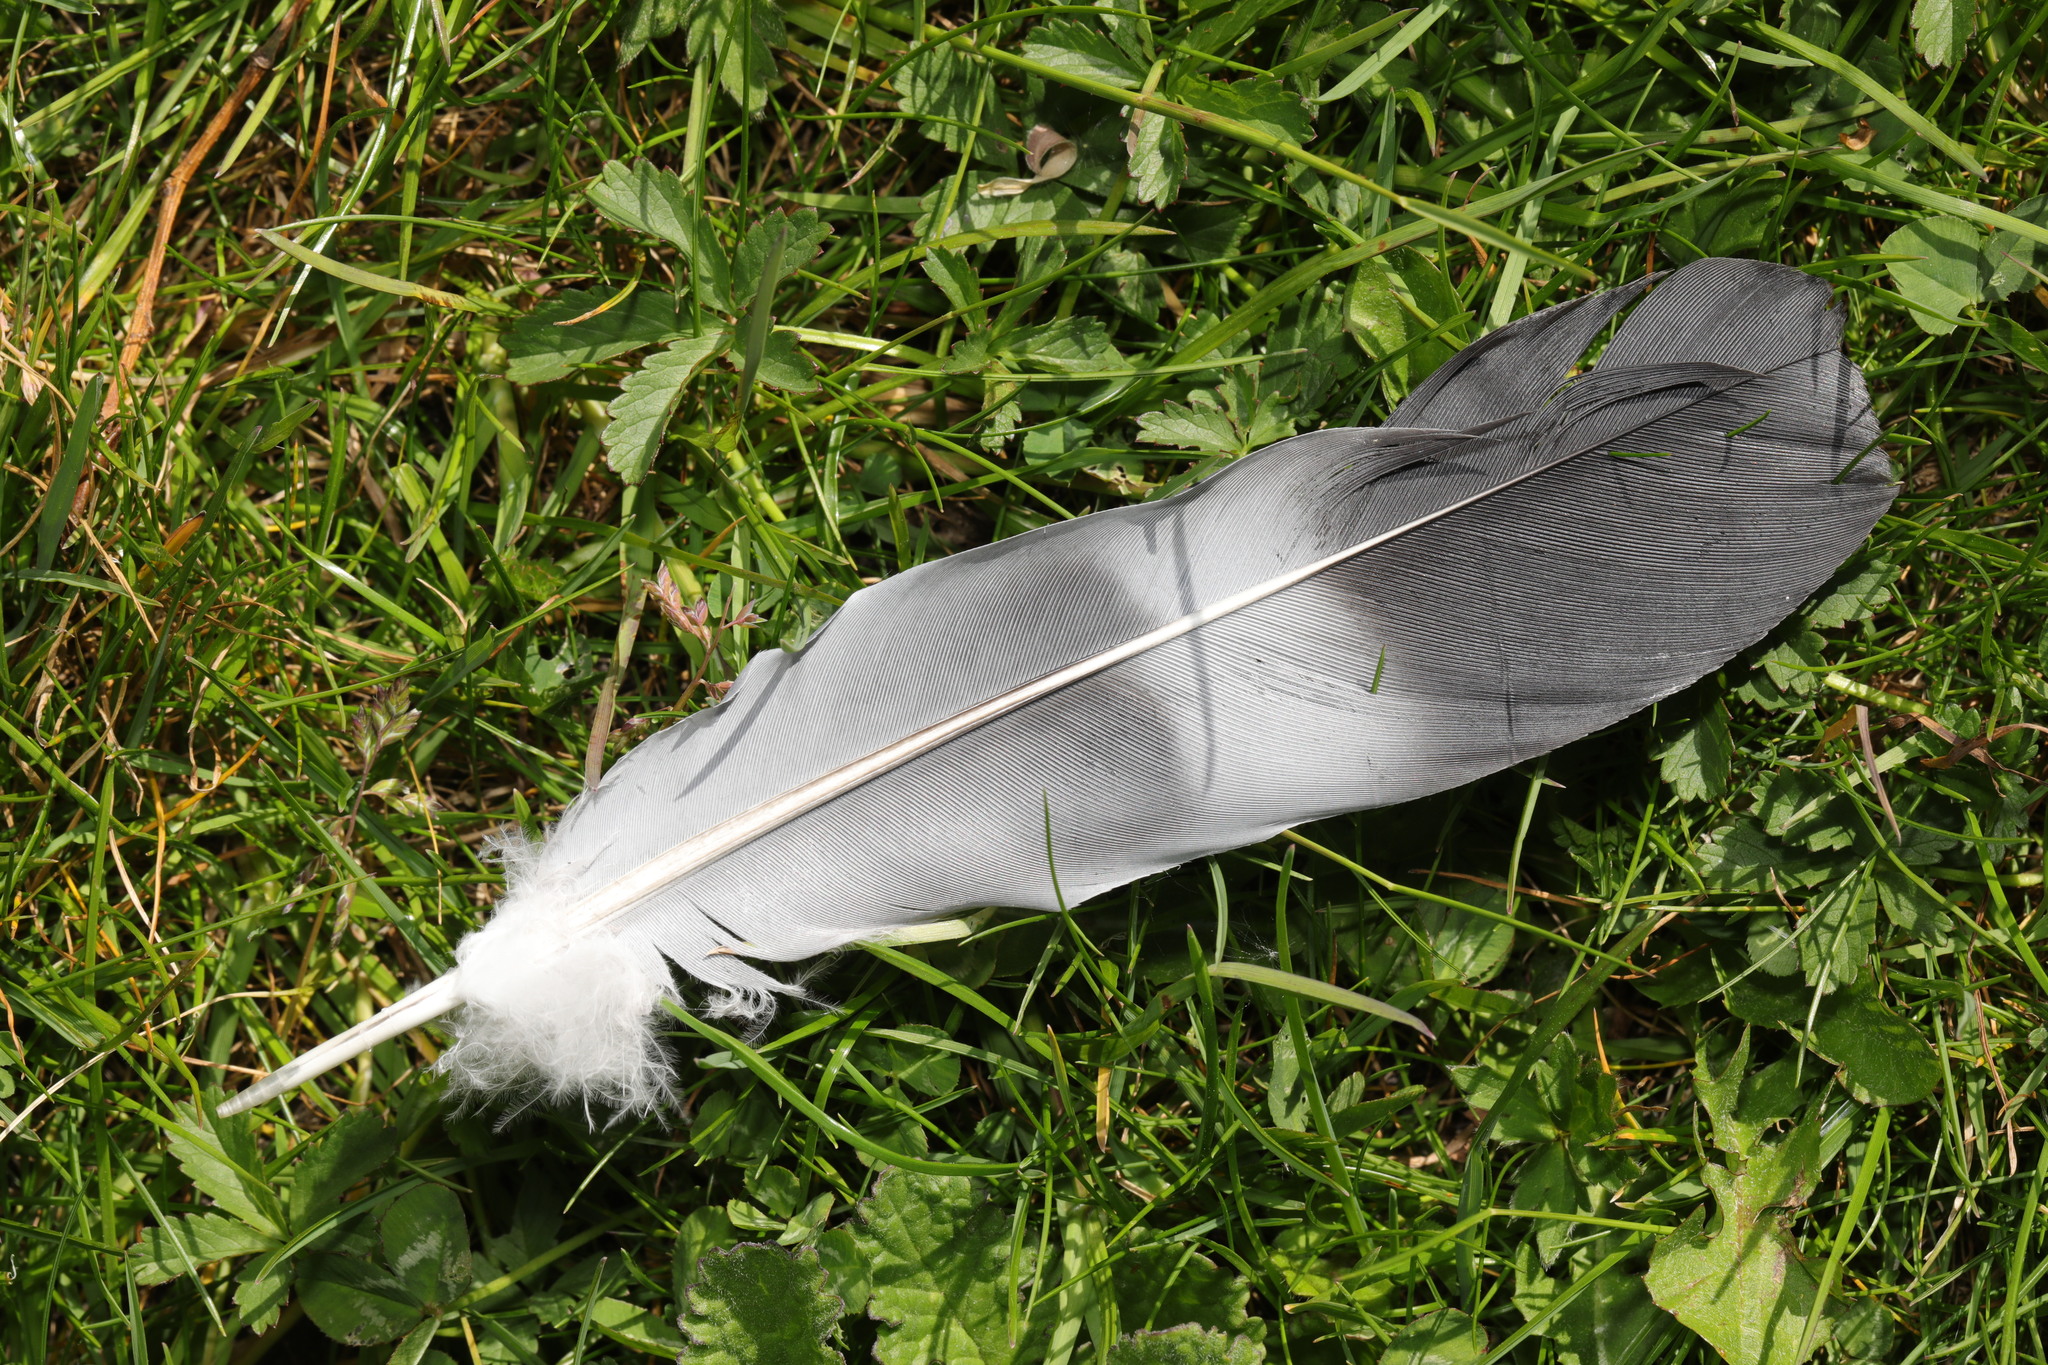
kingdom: Animalia
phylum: Chordata
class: Aves
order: Columbiformes
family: Columbidae
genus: Columba
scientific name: Columba palumbus
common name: Common wood pigeon
